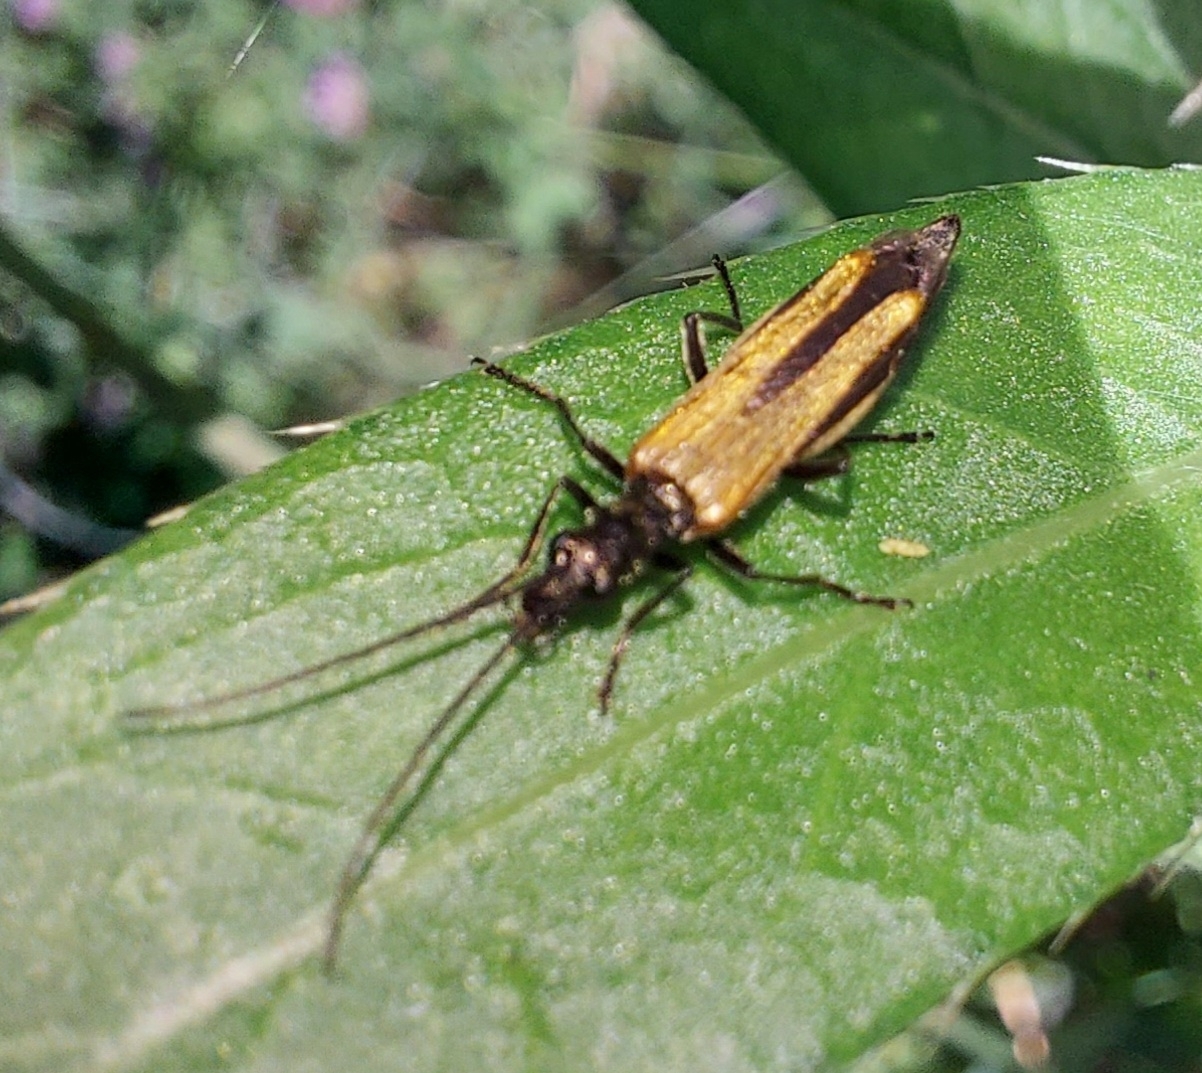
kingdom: Animalia
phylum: Arthropoda
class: Insecta
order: Coleoptera
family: Oedemeridae
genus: Oedemera
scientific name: Oedemera femorata
